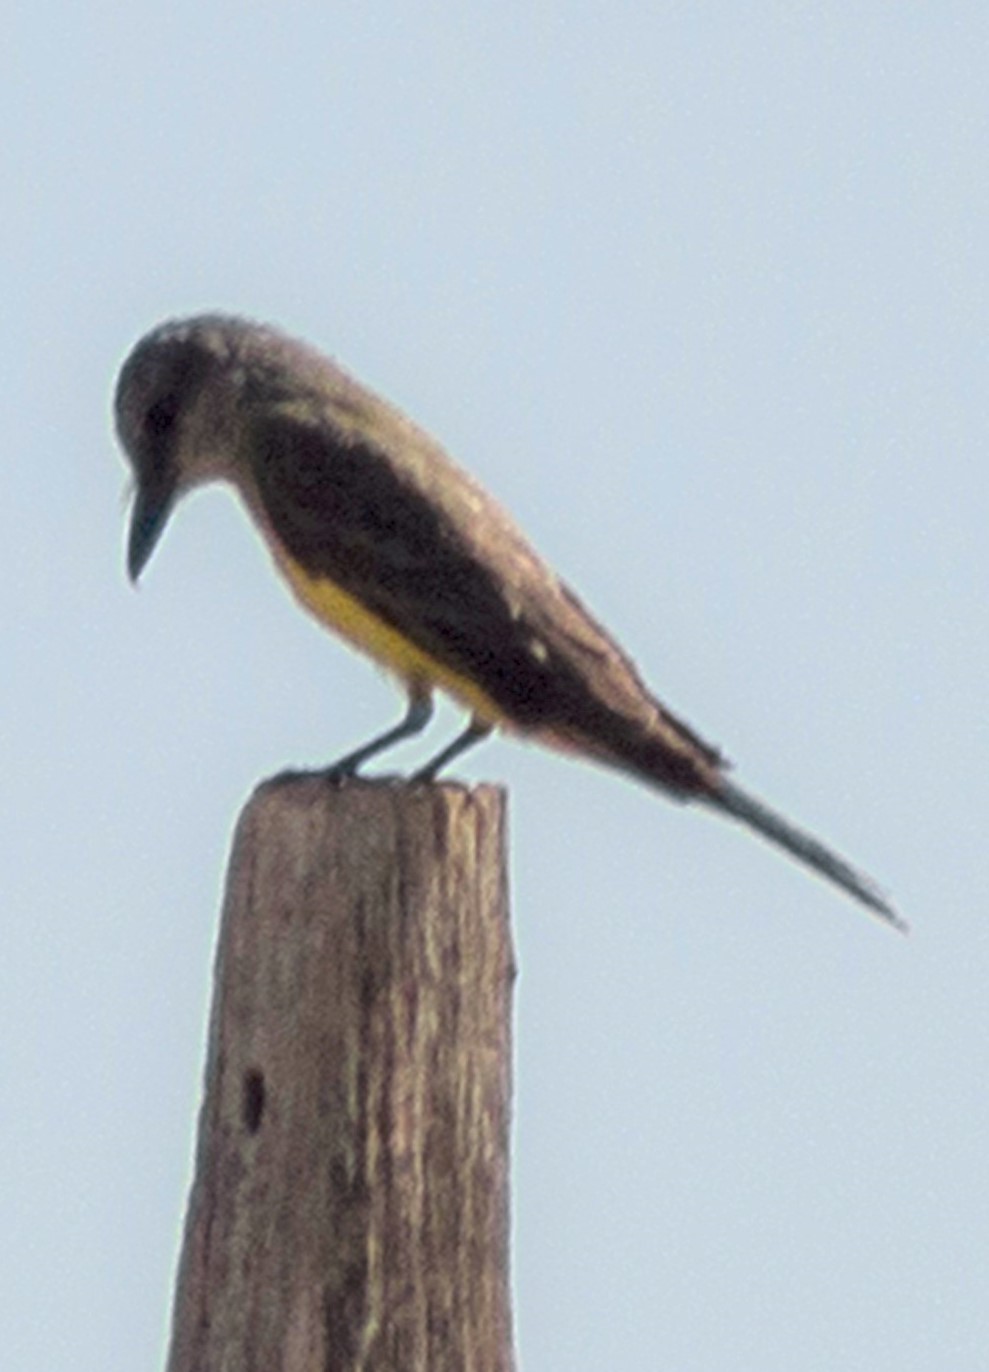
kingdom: Animalia
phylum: Chordata
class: Aves
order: Passeriformes
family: Tyrannidae
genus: Tyrannus
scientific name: Tyrannus melancholicus
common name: Tropical kingbird
